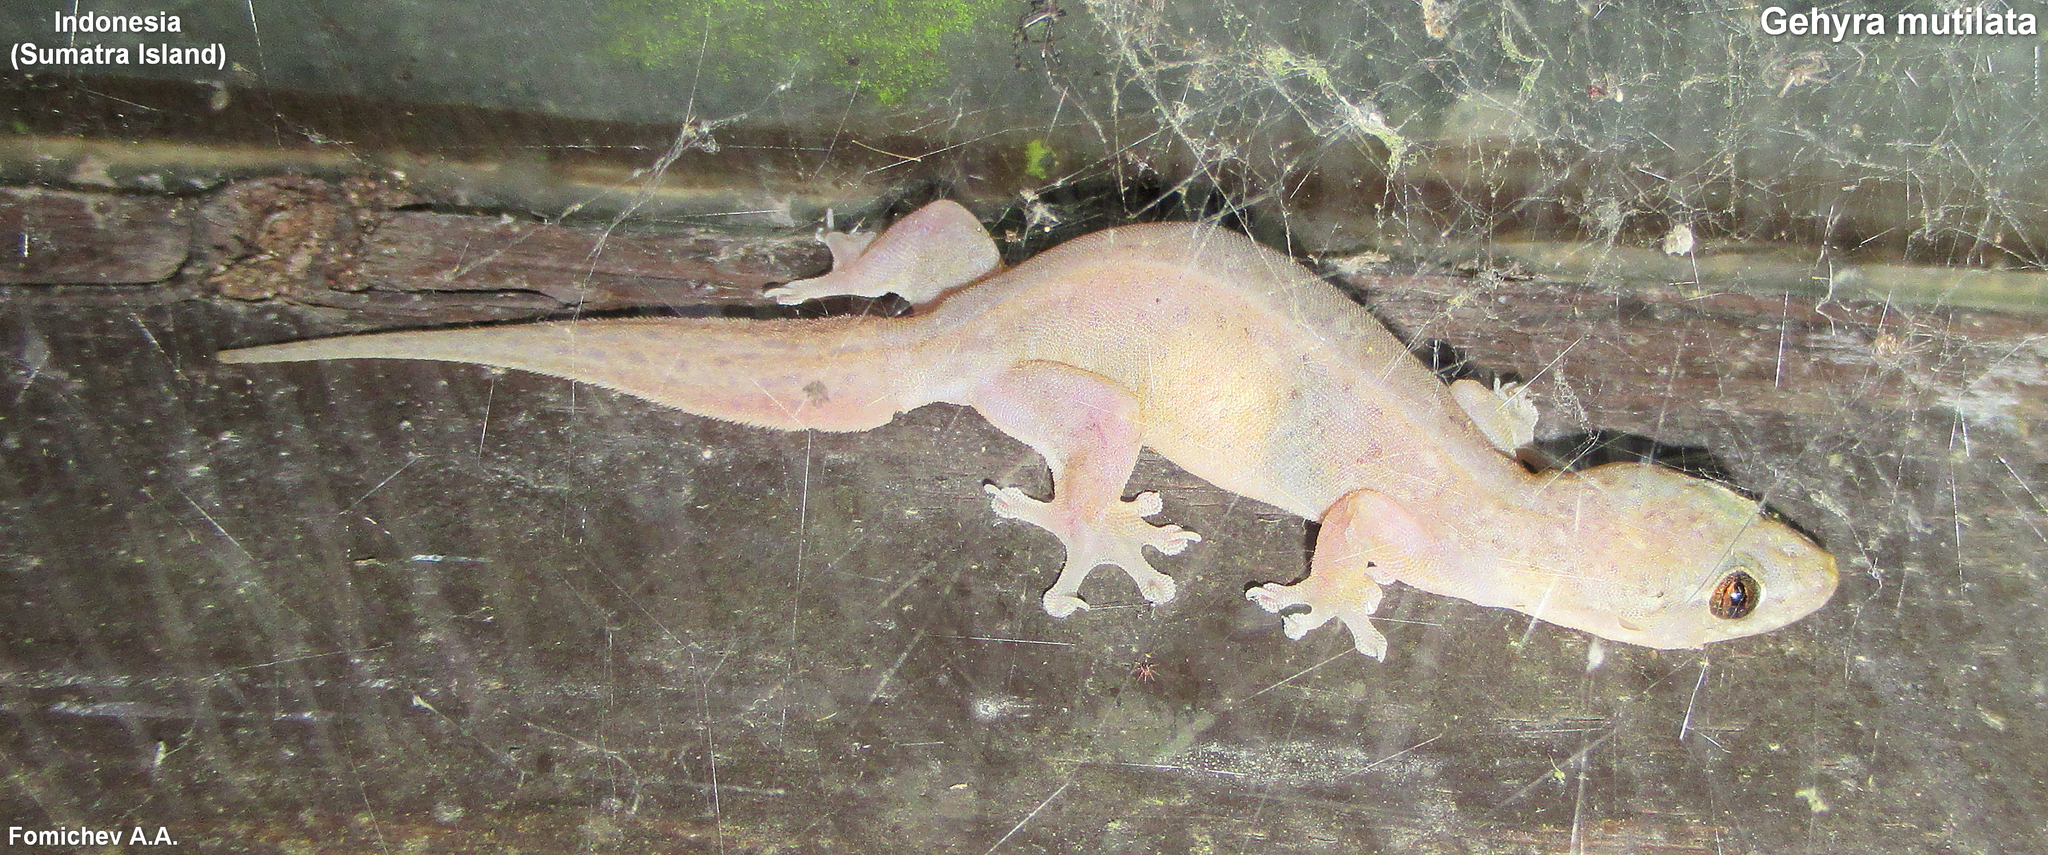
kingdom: Animalia
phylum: Chordata
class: Squamata
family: Gekkonidae
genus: Gehyra
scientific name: Gehyra mutilata
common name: Stump-toed gecko
